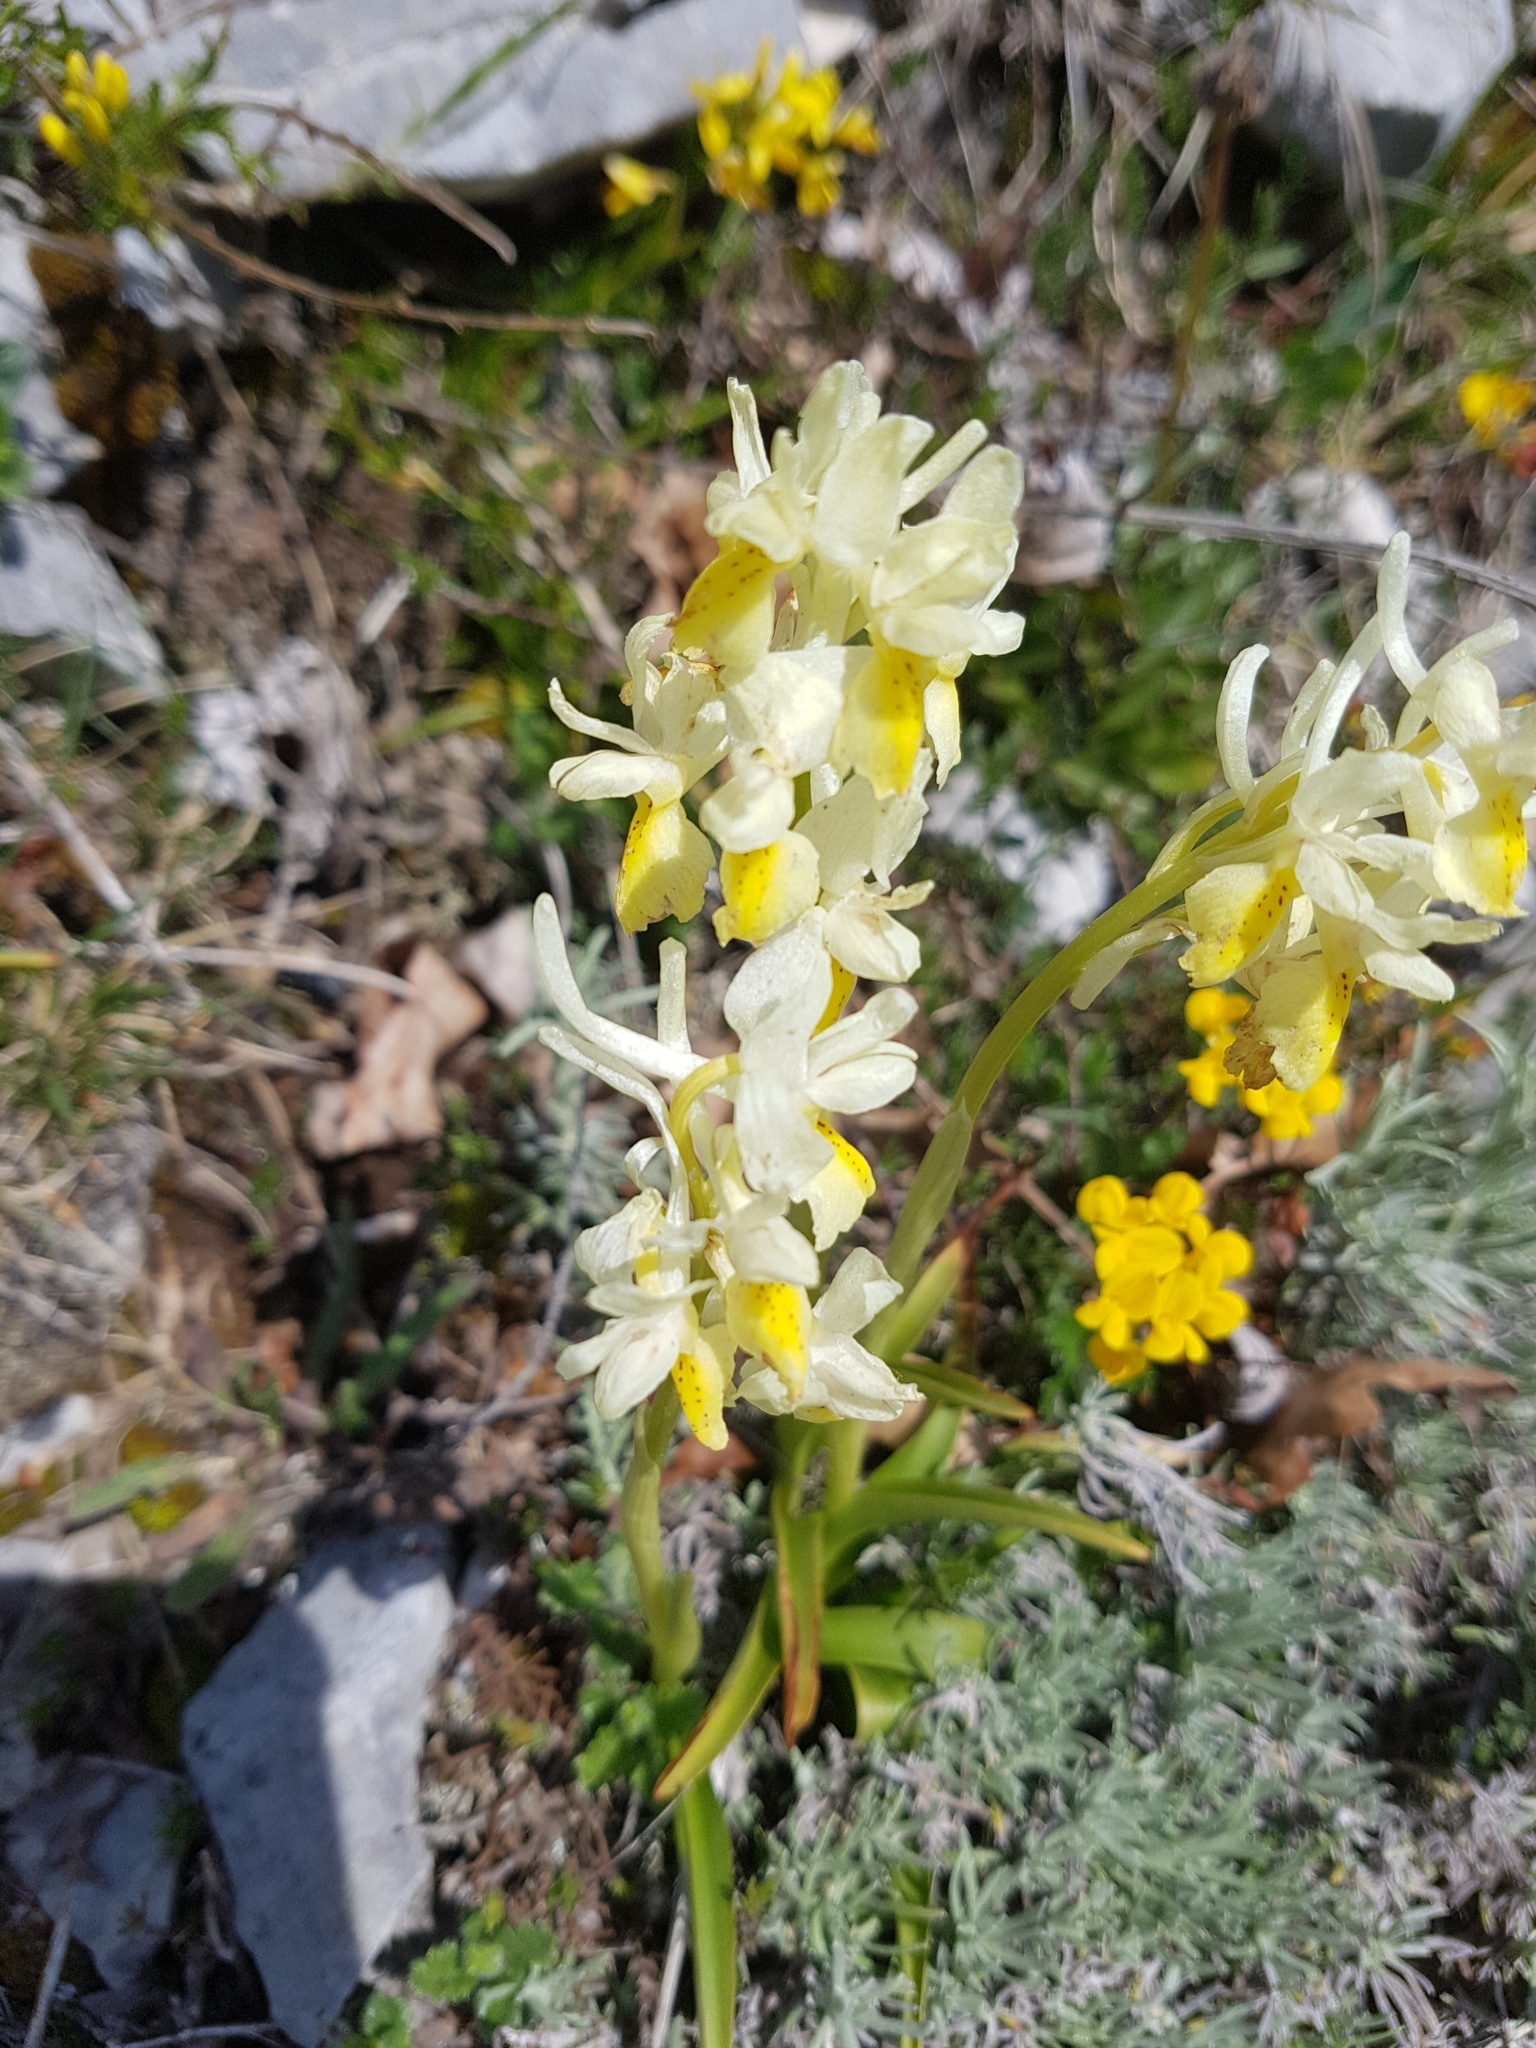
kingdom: Plantae
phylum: Tracheophyta
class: Liliopsida
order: Asparagales
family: Orchidaceae
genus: Orchis
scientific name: Orchis pauciflora
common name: Few-flowered orchid
